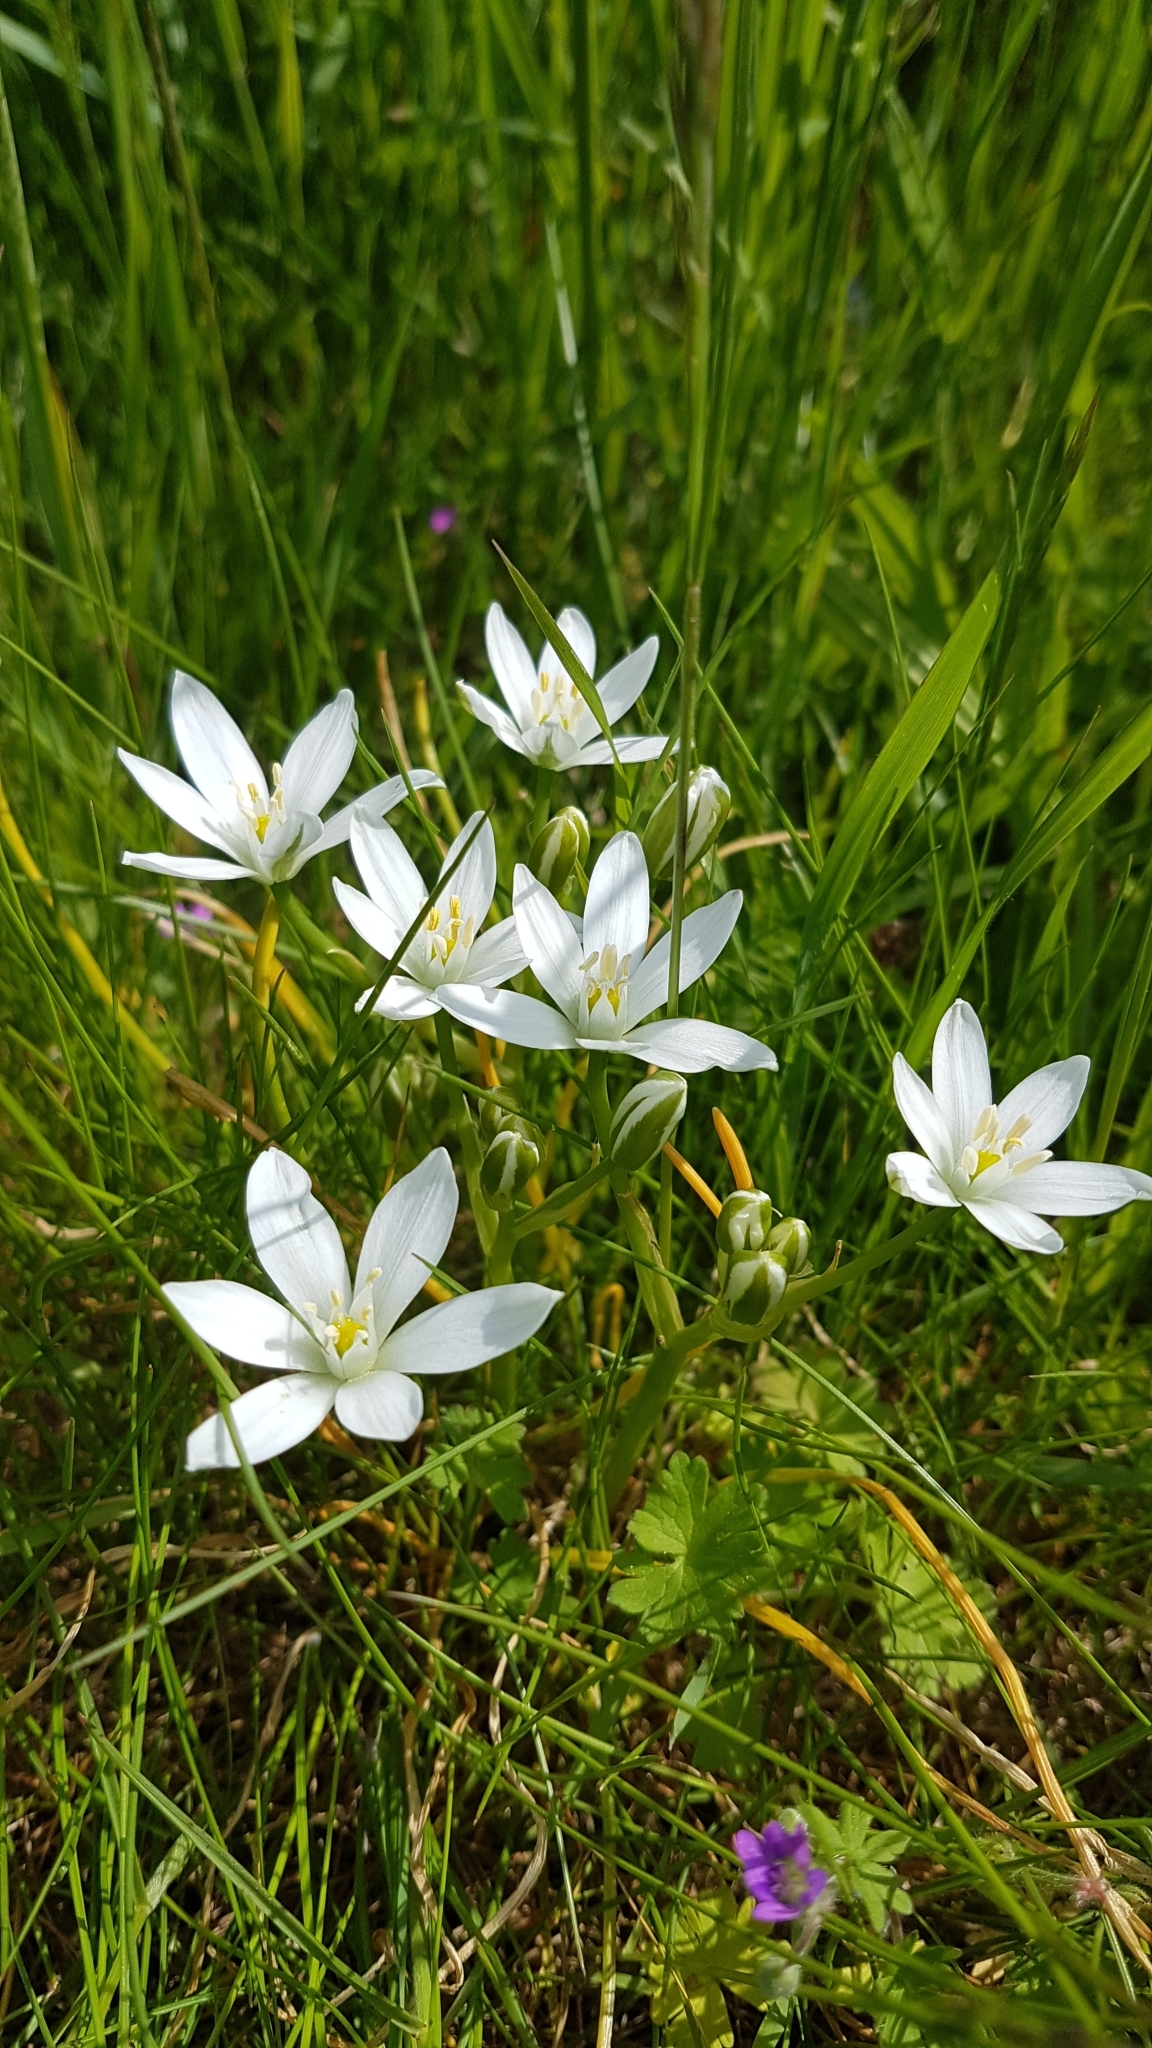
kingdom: Plantae
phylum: Tracheophyta
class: Liliopsida
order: Asparagales
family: Asparagaceae
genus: Ornithogalum
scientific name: Ornithogalum umbellatum
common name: Garden star-of-bethlehem
